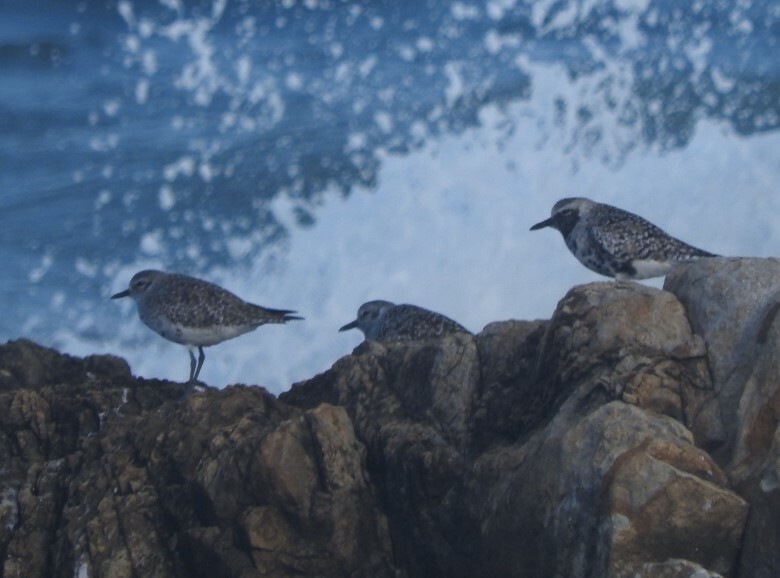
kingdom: Animalia
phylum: Chordata
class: Aves
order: Charadriiformes
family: Charadriidae
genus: Pluvialis
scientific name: Pluvialis squatarola
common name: Grey plover
